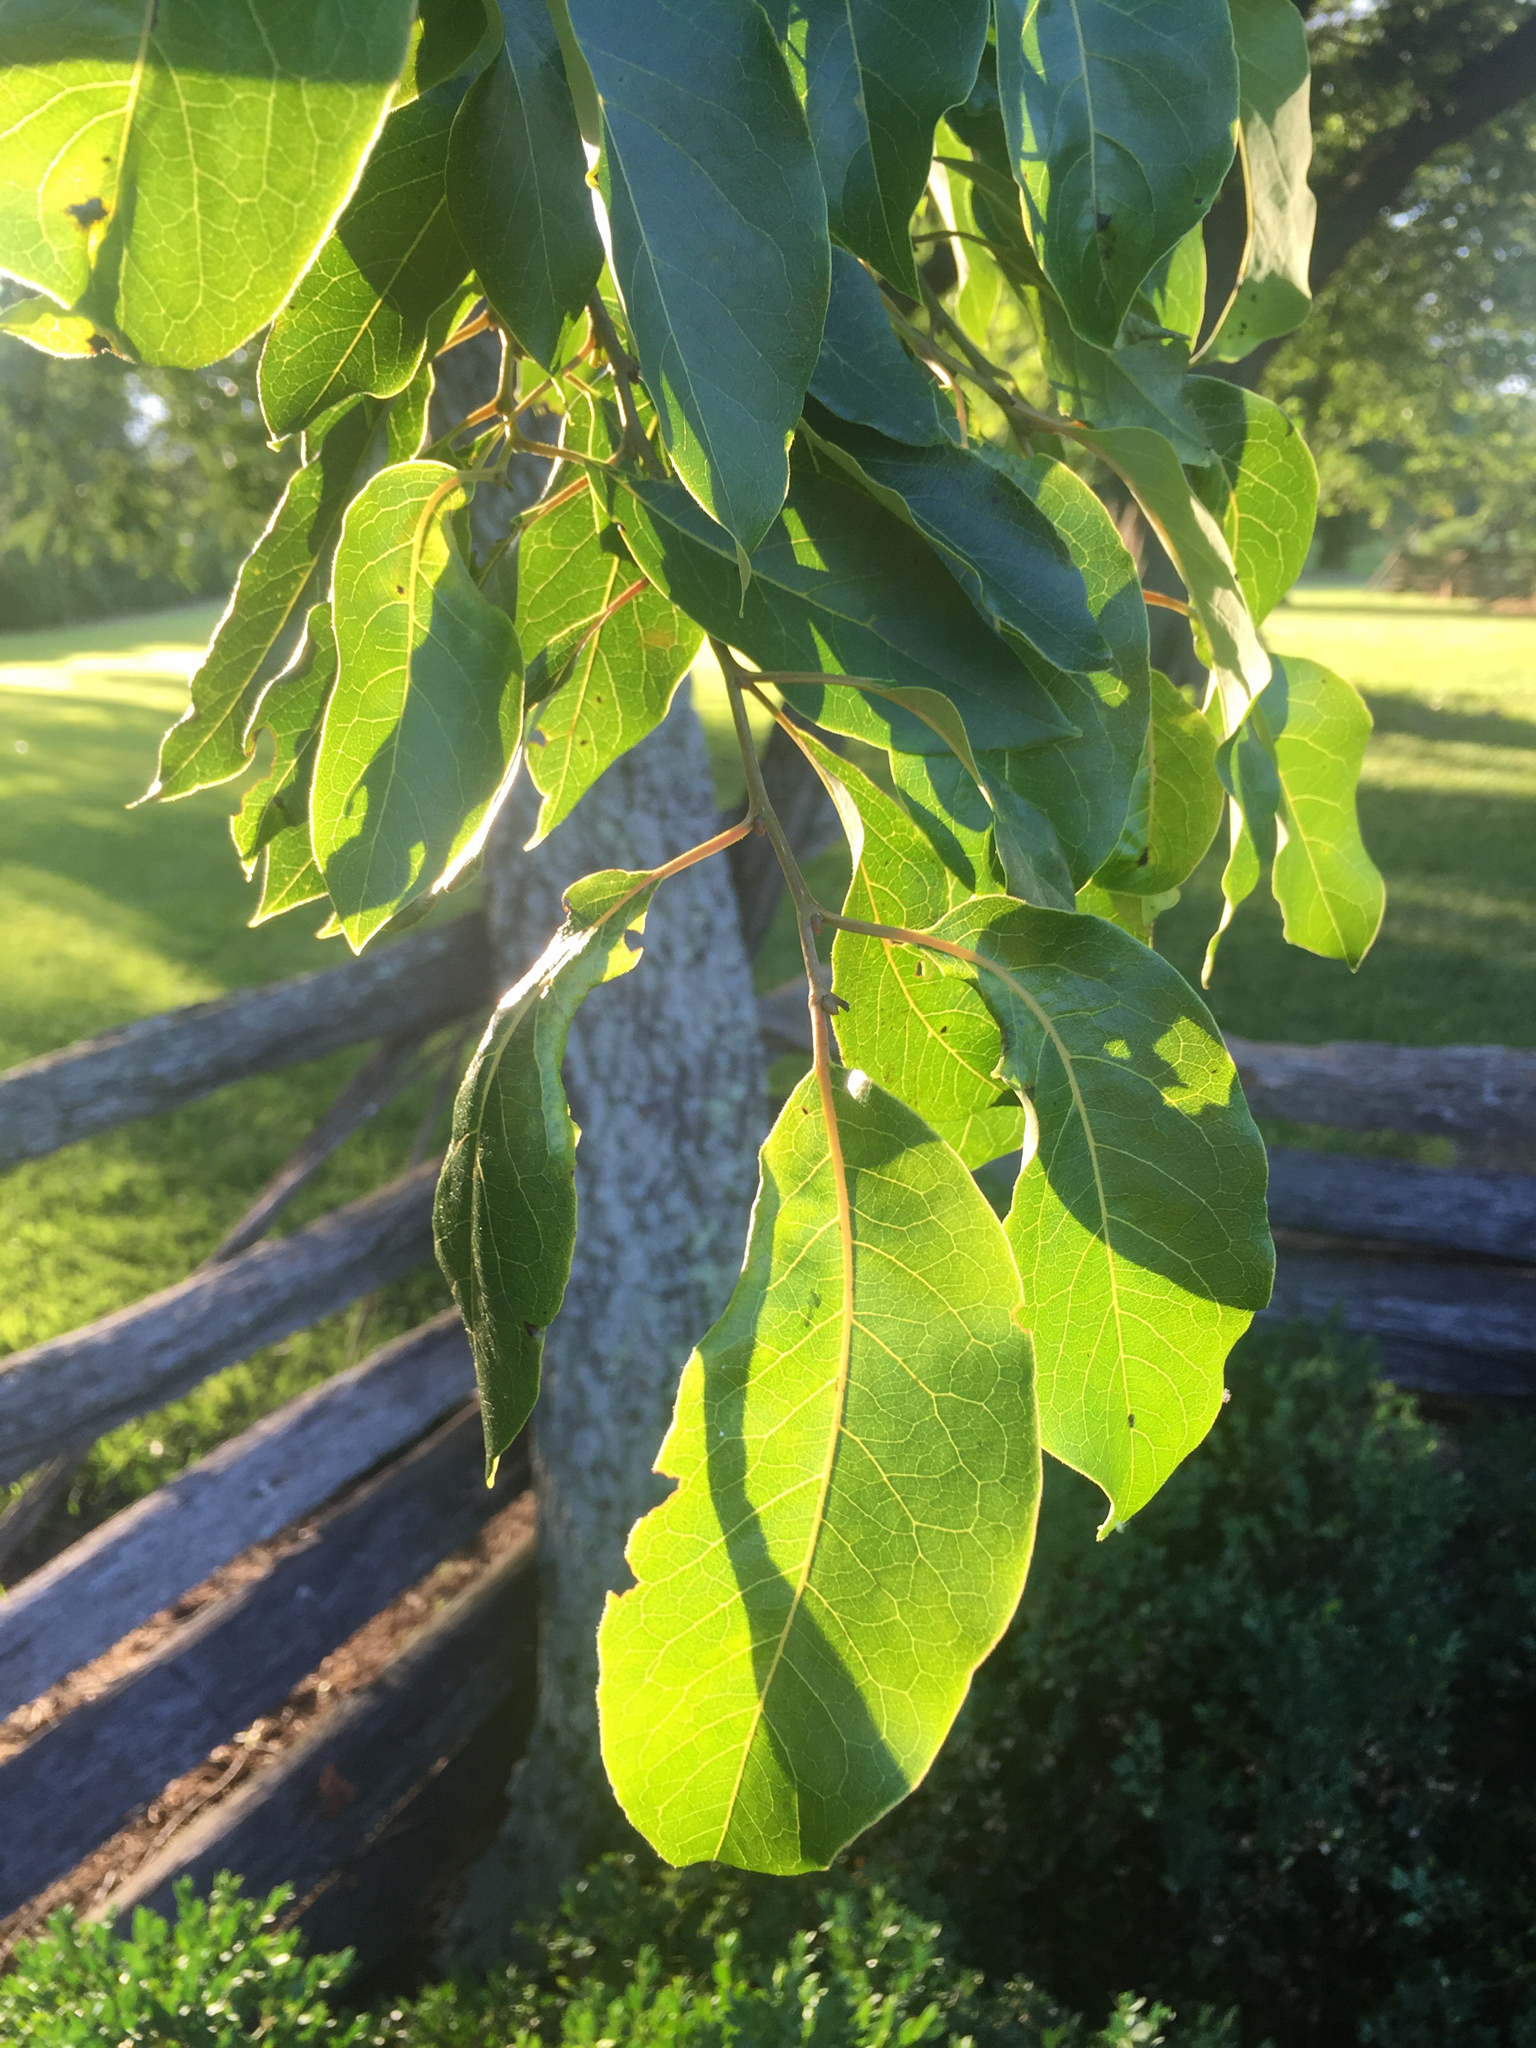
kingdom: Plantae
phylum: Tracheophyta
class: Magnoliopsida
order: Ericales
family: Ebenaceae
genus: Diospyros
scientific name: Diospyros virginiana
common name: Persimmon
